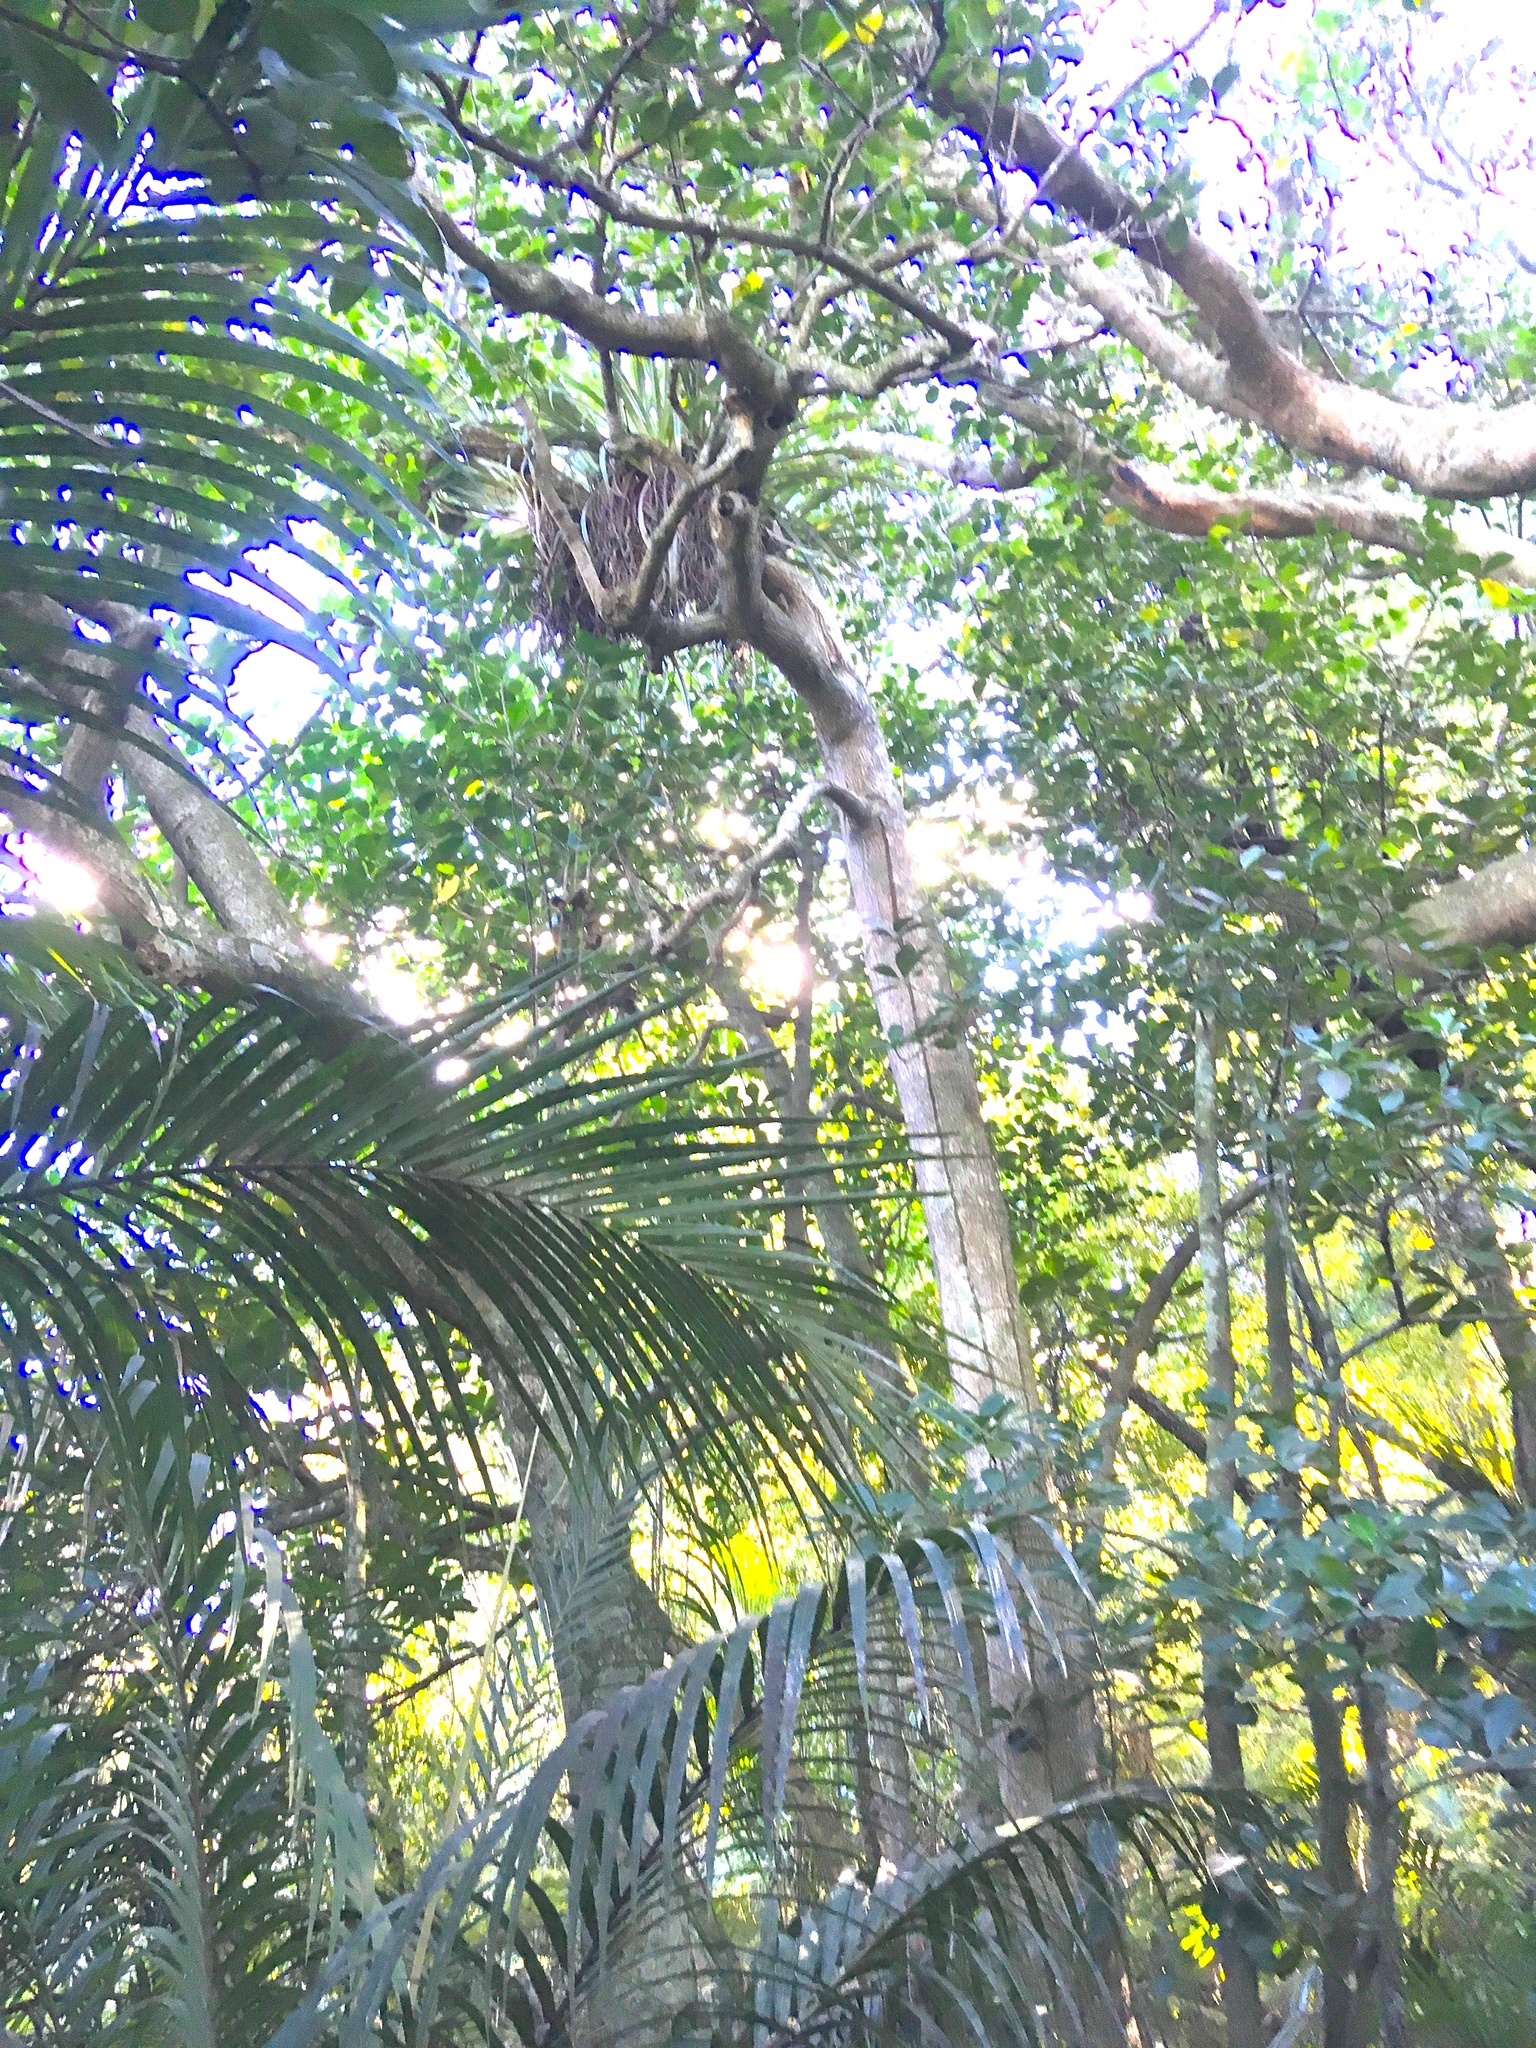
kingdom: Plantae
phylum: Tracheophyta
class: Liliopsida
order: Arecales
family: Arecaceae
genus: Rhopalostylis
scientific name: Rhopalostylis sapida
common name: Feather-duster palm
